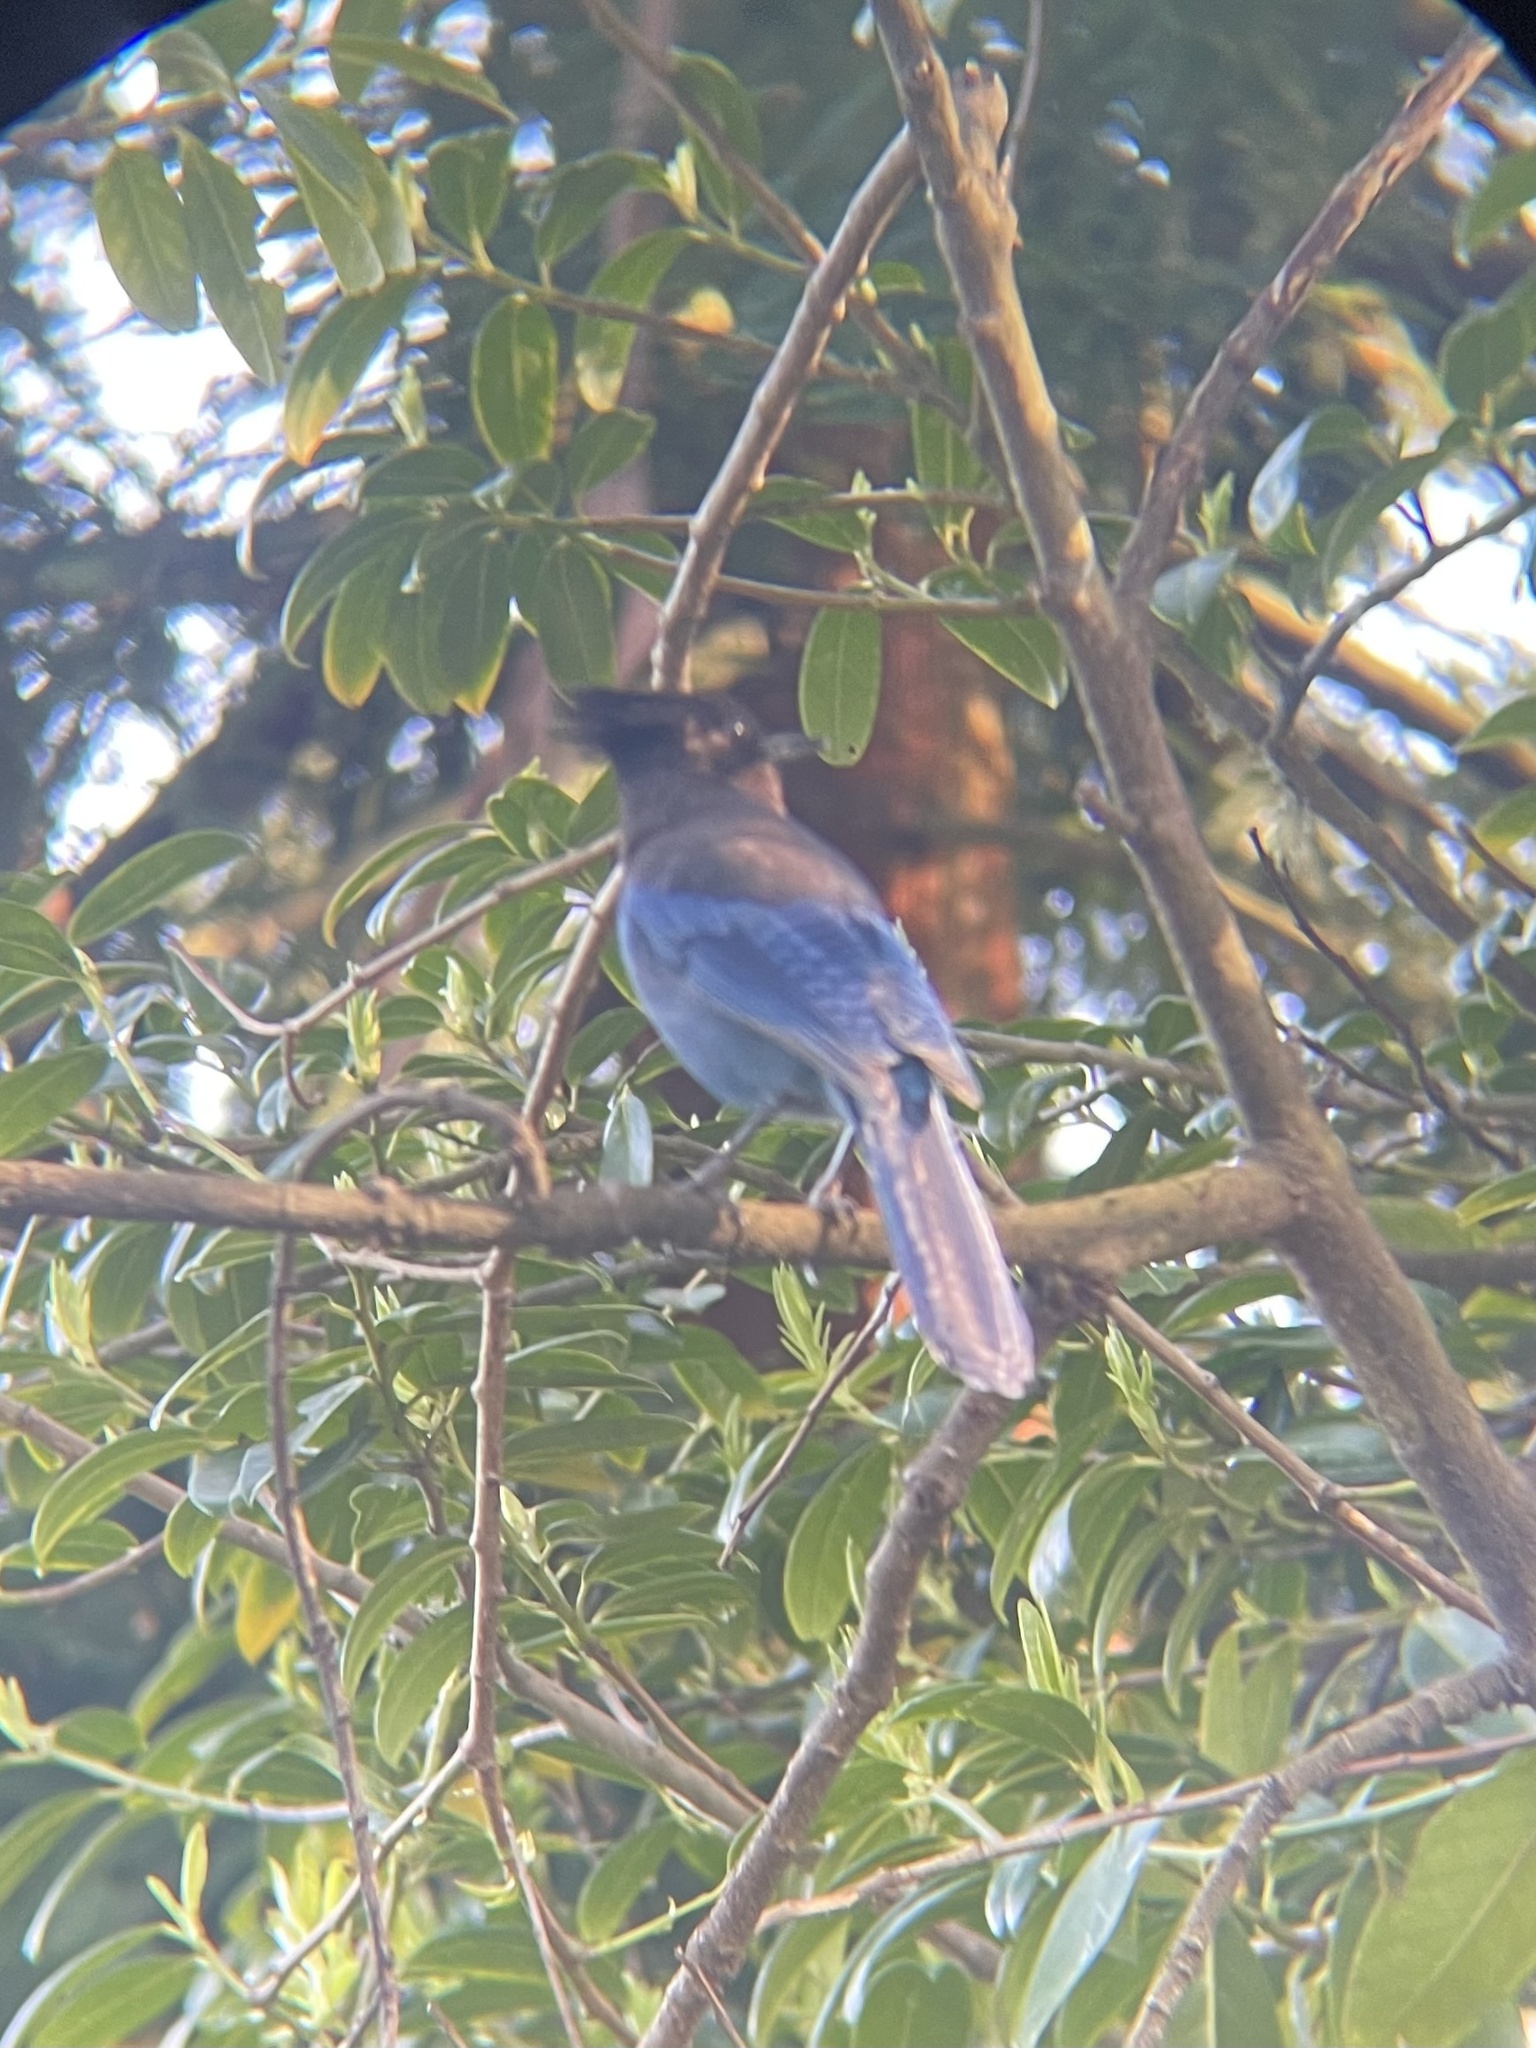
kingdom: Animalia
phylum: Chordata
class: Aves
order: Passeriformes
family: Corvidae
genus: Cyanocitta
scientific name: Cyanocitta stelleri
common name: Steller's jay
